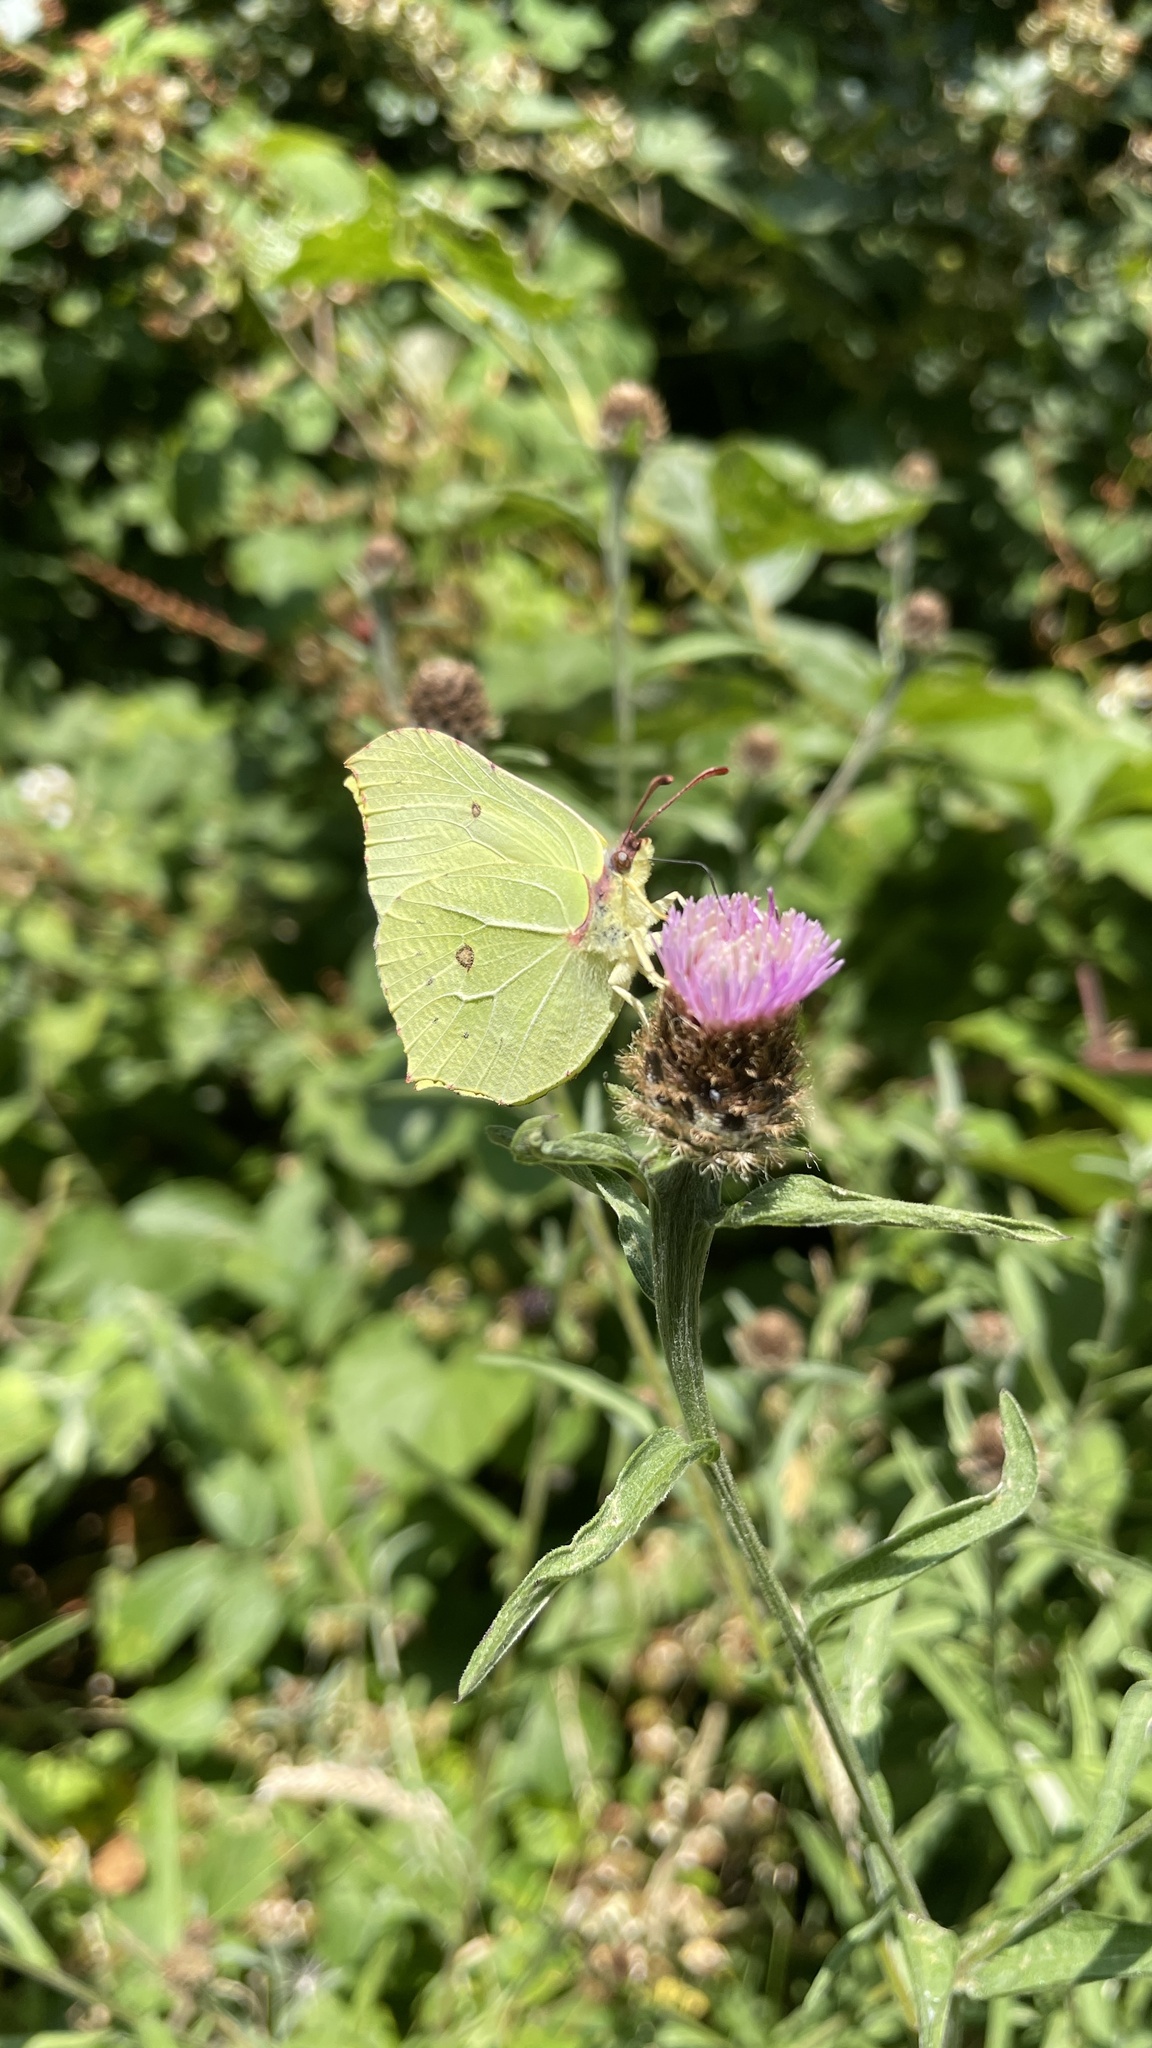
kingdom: Animalia
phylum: Arthropoda
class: Insecta
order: Lepidoptera
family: Pieridae
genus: Gonepteryx
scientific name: Gonepteryx rhamni
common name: Brimstone
